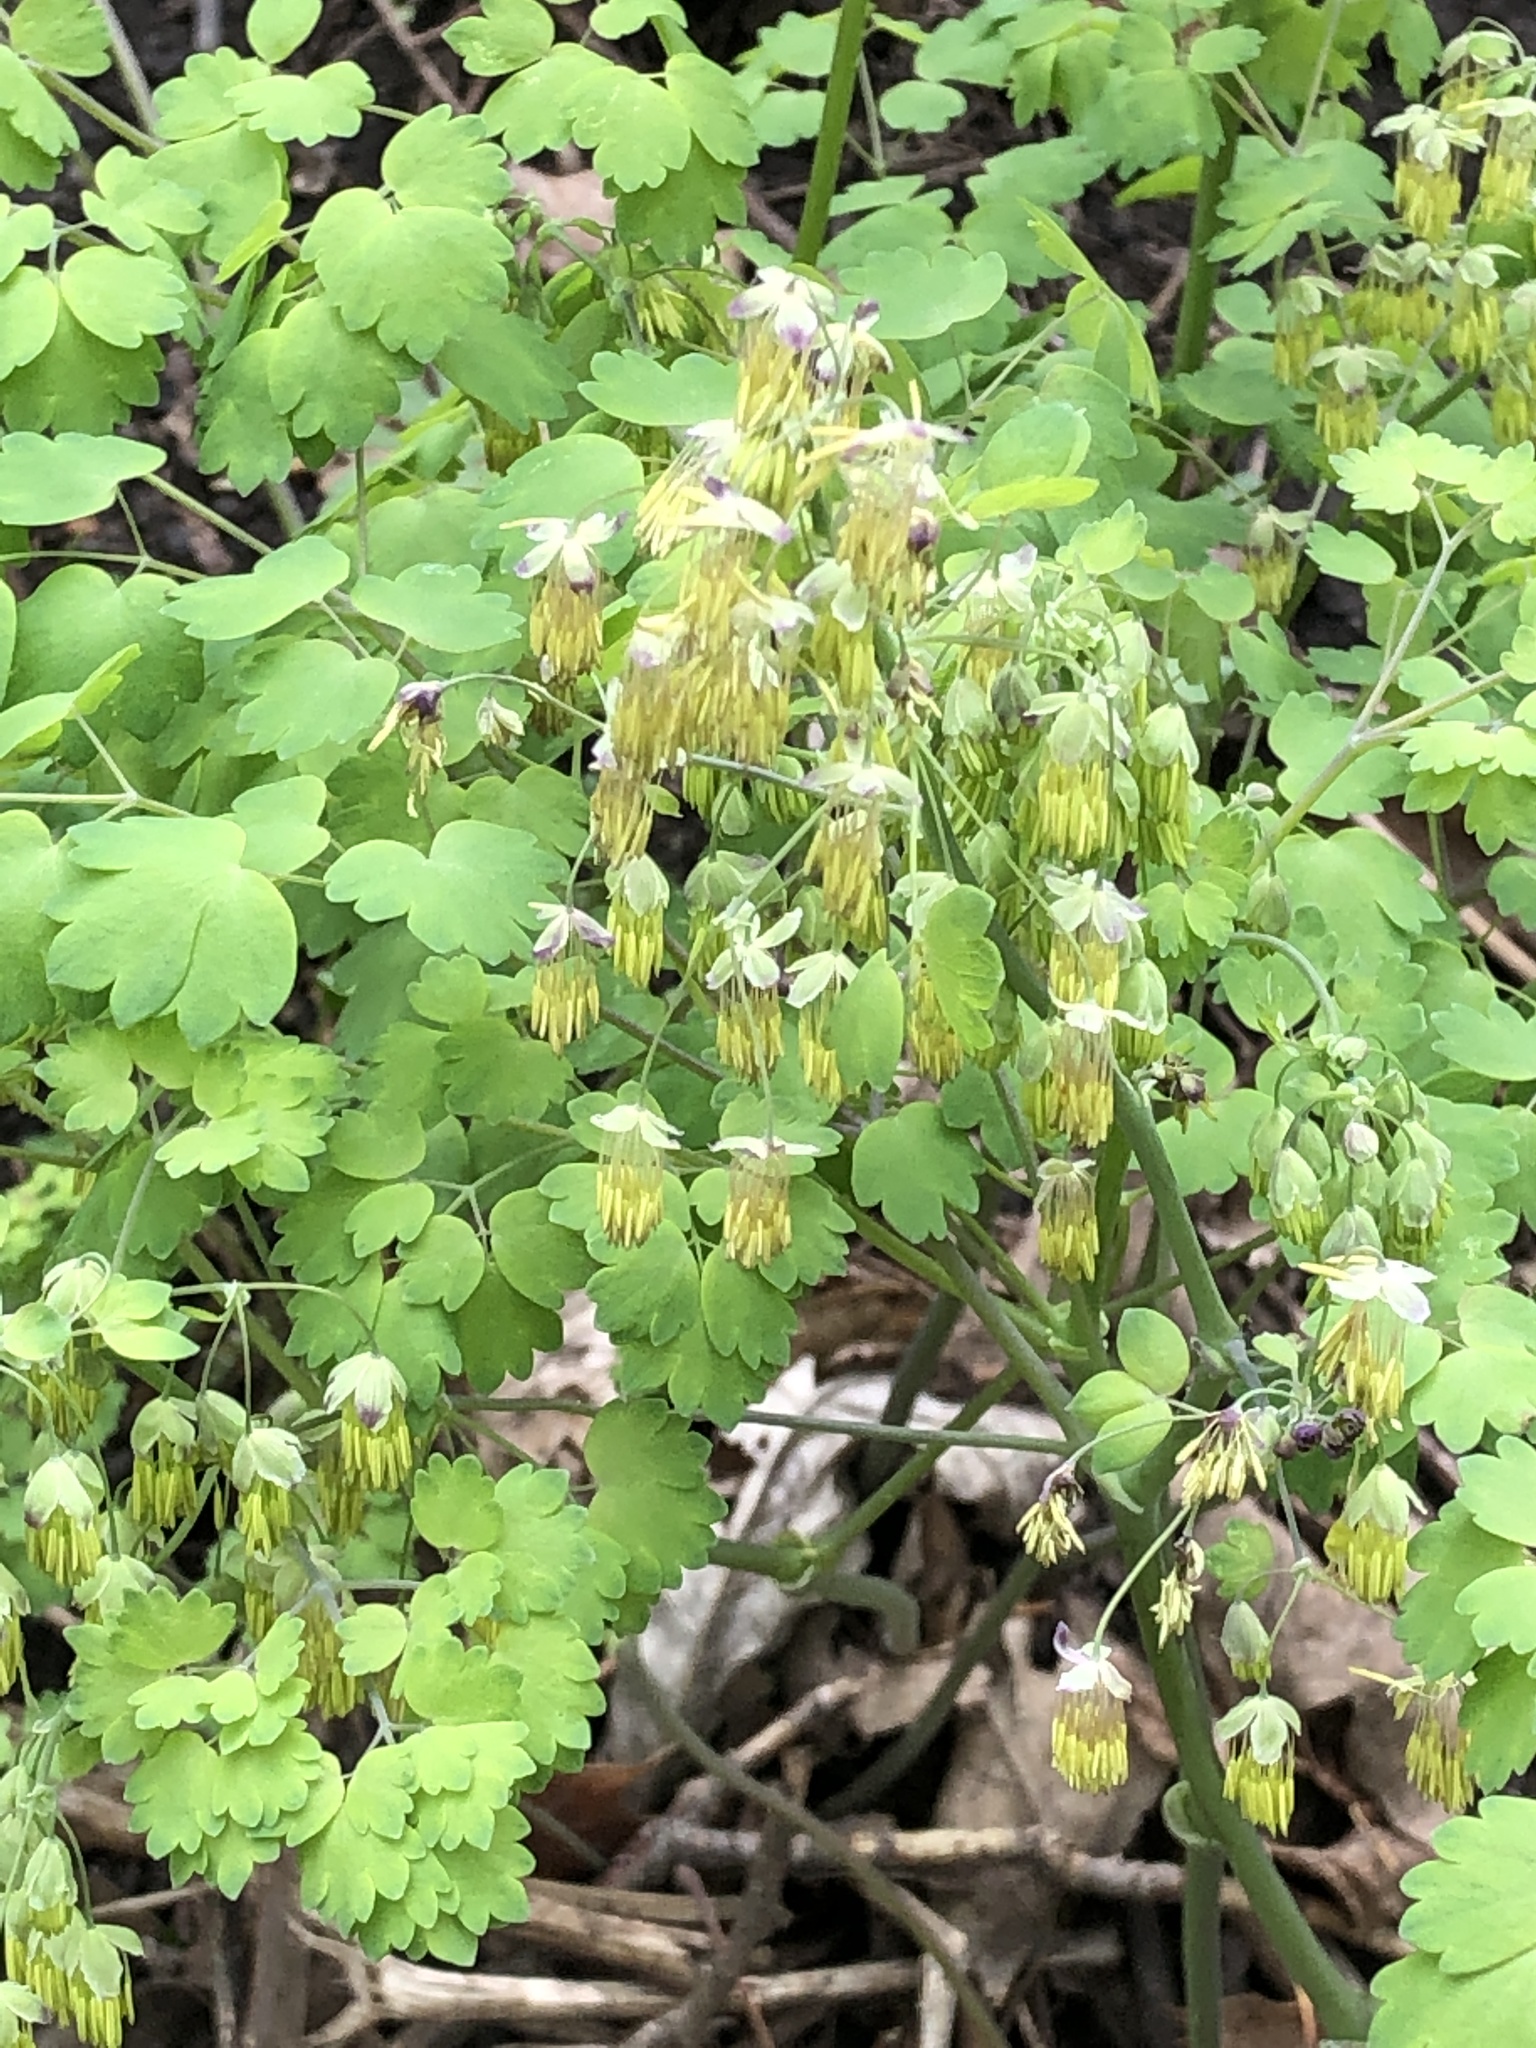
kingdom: Plantae
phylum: Tracheophyta
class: Magnoliopsida
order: Ranunculales
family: Ranunculaceae
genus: Thalictrum
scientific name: Thalictrum dioicum
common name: Early meadow-rue
